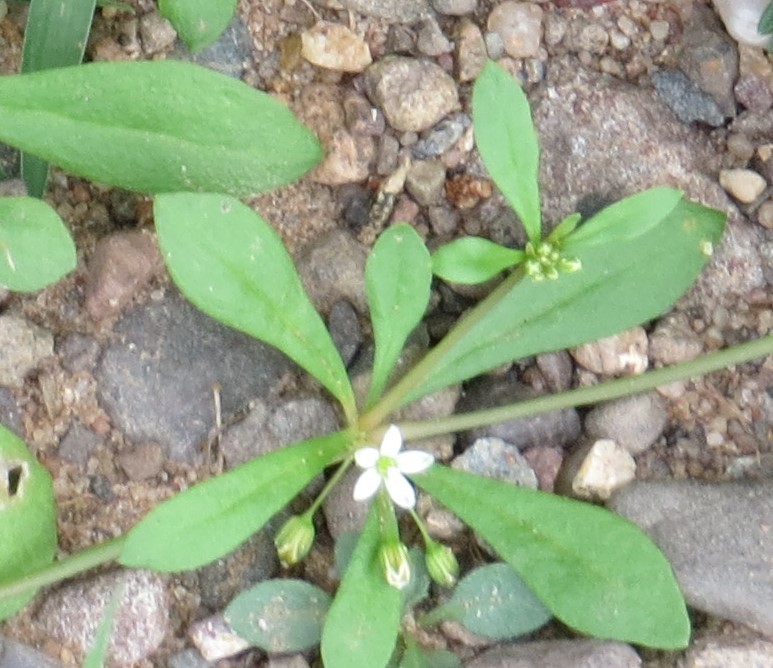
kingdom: Plantae
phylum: Tracheophyta
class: Magnoliopsida
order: Caryophyllales
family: Molluginaceae
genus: Mollugo
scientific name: Mollugo verticillata
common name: Green carpetweed
